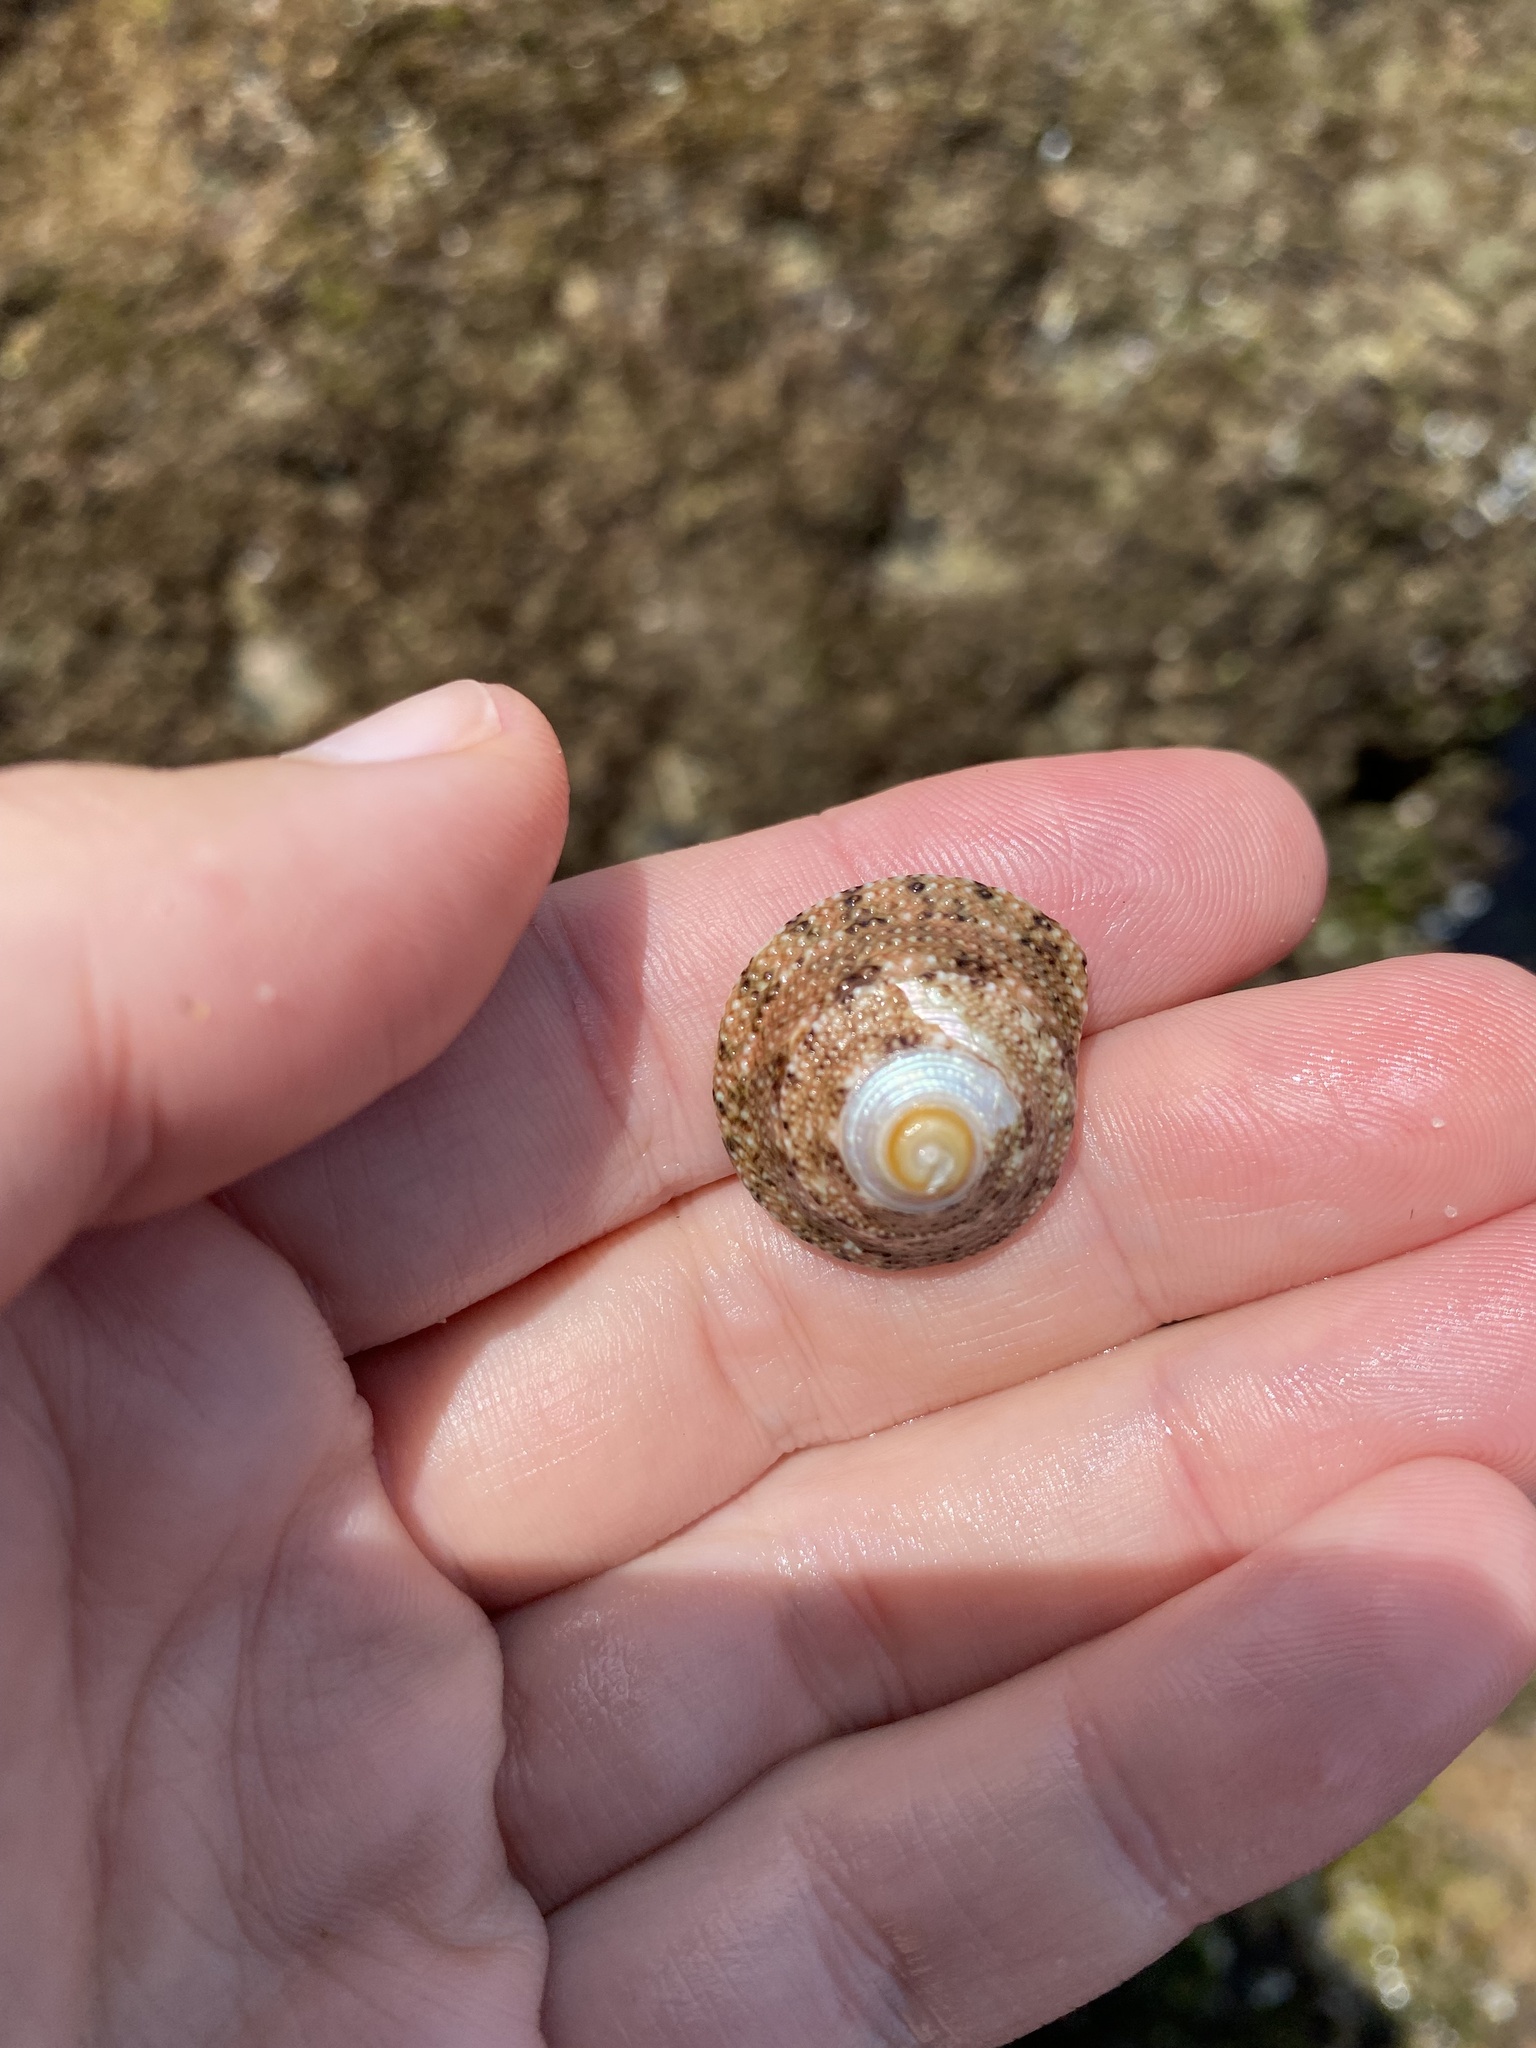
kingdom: Animalia
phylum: Mollusca
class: Gastropoda
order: Trochida
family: Trochidae
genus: Trochus
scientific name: Trochus nigropunctatus
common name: Black-spotted topshell
